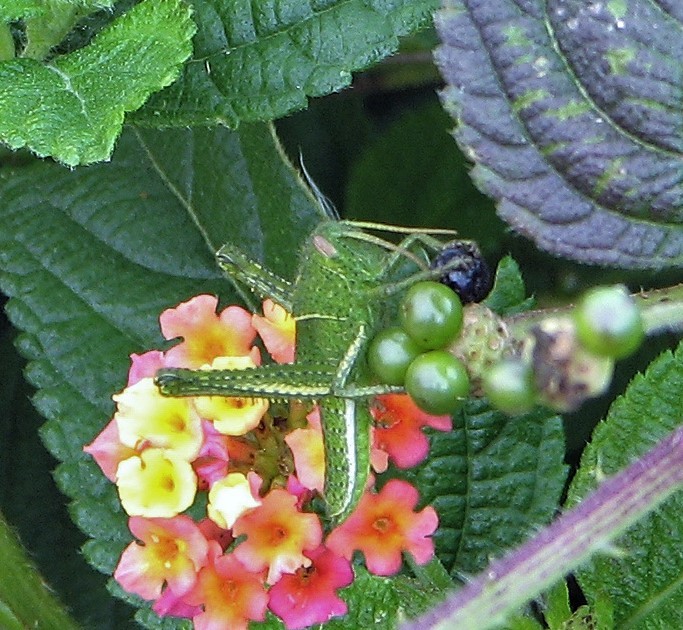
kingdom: Animalia
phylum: Arthropoda
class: Insecta
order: Orthoptera
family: Acrididae
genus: Schistocerca
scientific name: Schistocerca flavofasciata
